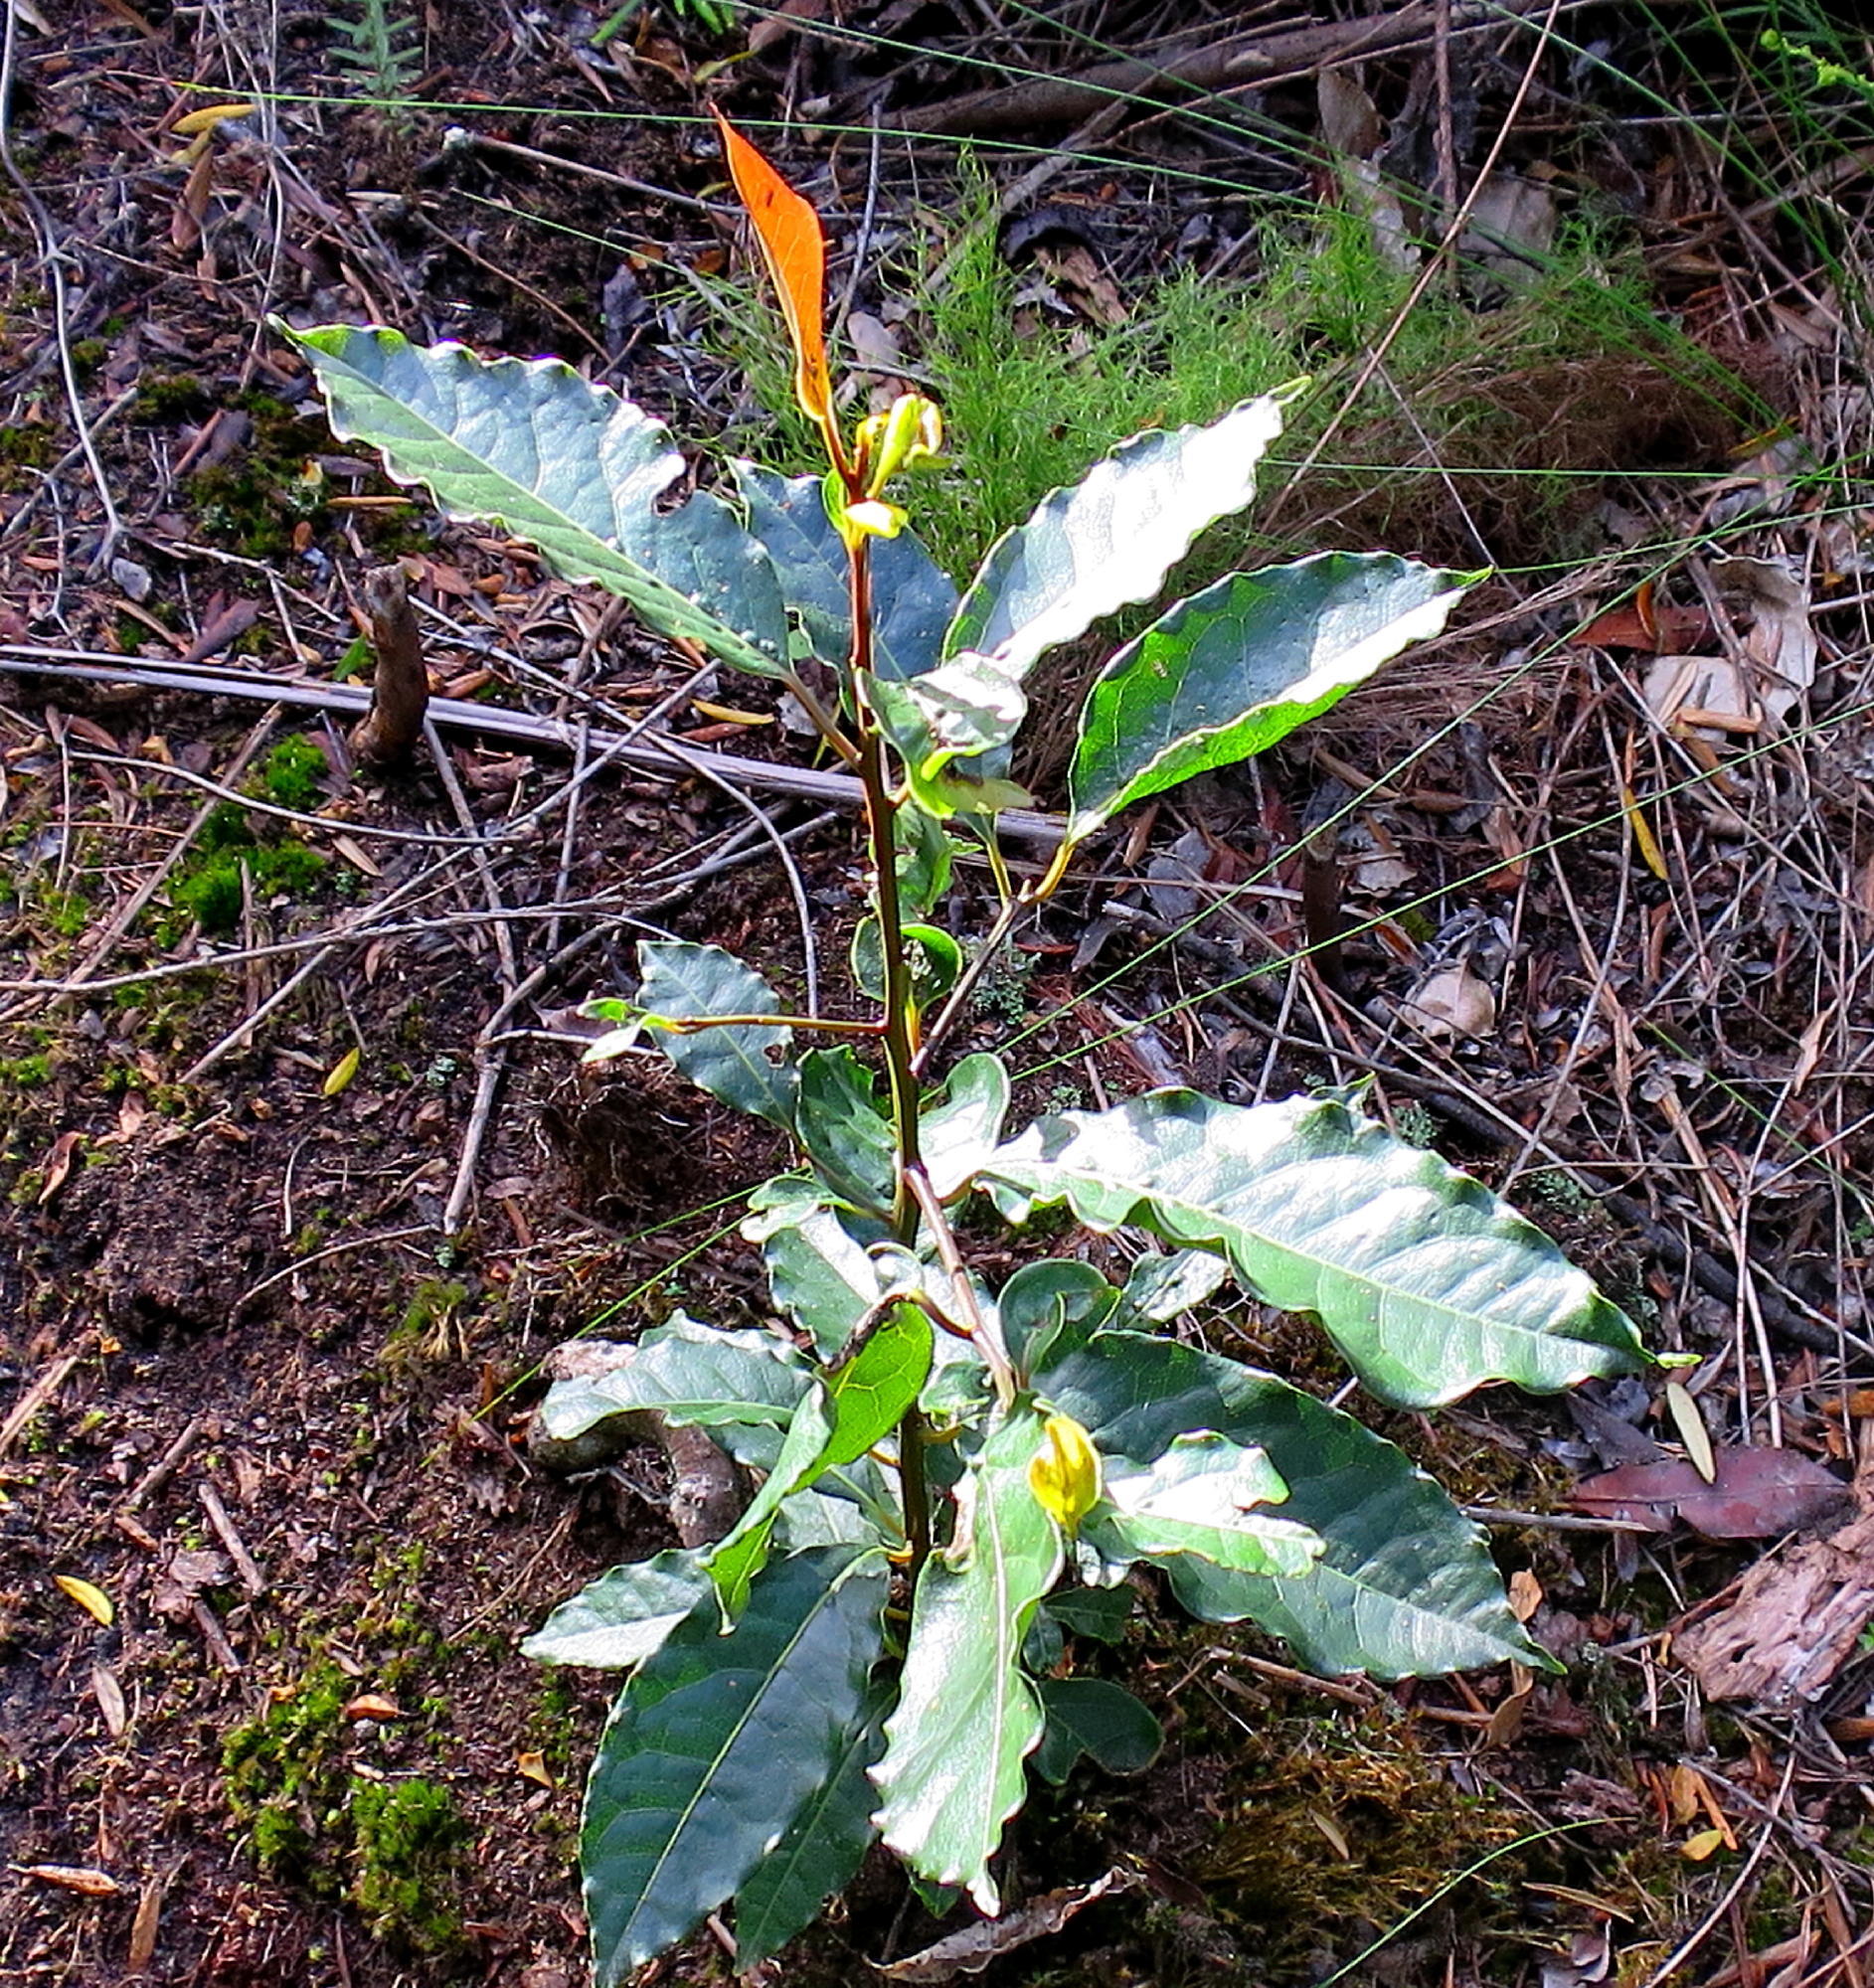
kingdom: Plantae
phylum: Tracheophyta
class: Magnoliopsida
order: Laurales
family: Lauraceae
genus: Ocotea
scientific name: Ocotea bullata
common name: Black stinkwood
